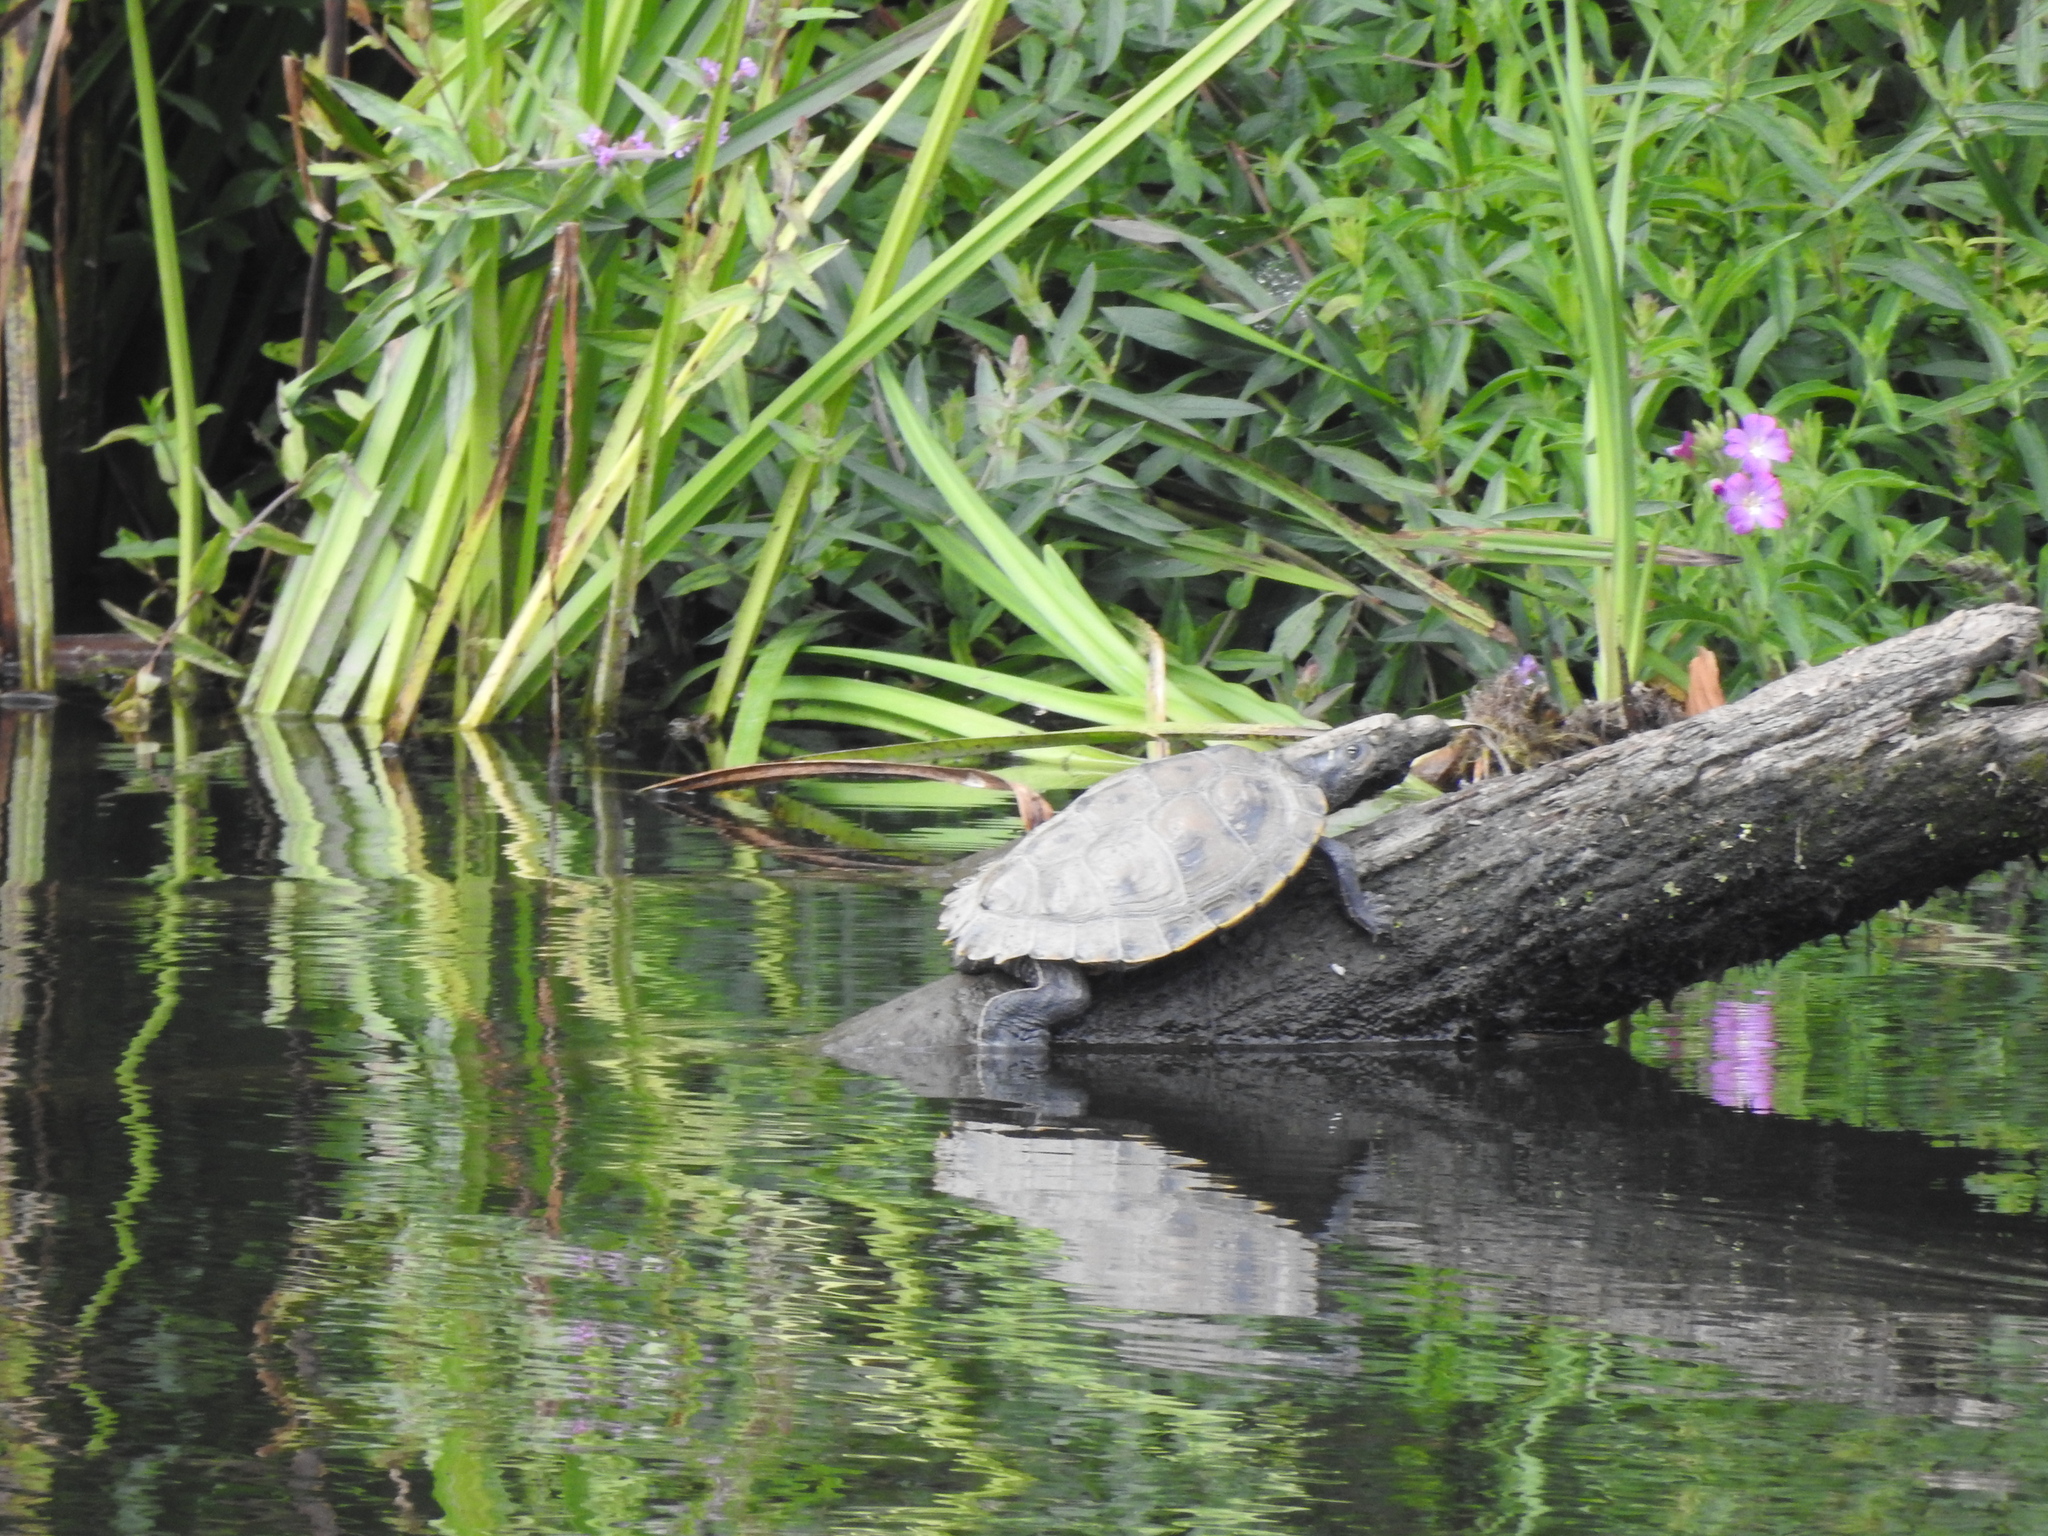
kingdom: Animalia
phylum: Chordata
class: Testudines
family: Emydidae
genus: Graptemys
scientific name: Graptemys pseudogeographica
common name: False map turtle
